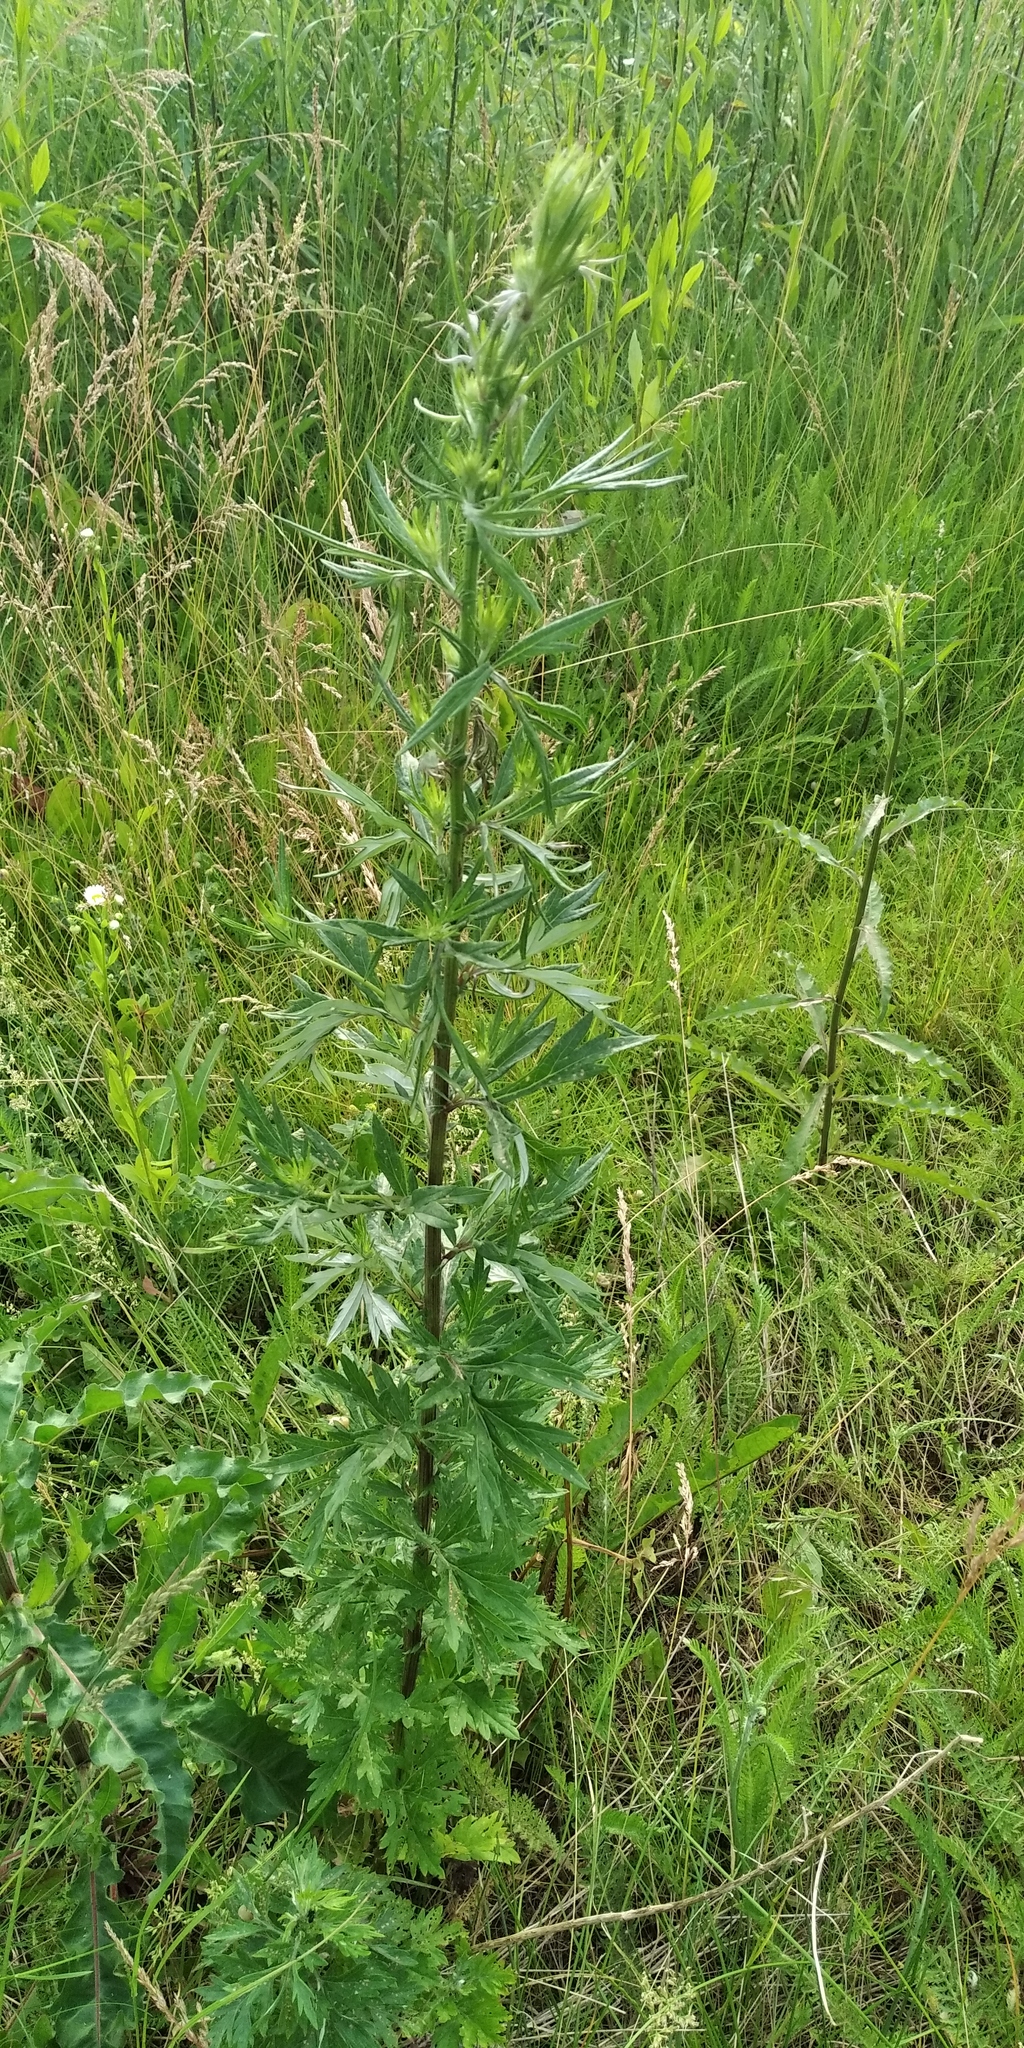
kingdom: Plantae
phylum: Tracheophyta
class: Magnoliopsida
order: Asterales
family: Asteraceae
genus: Artemisia
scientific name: Artemisia vulgaris
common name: Mugwort
